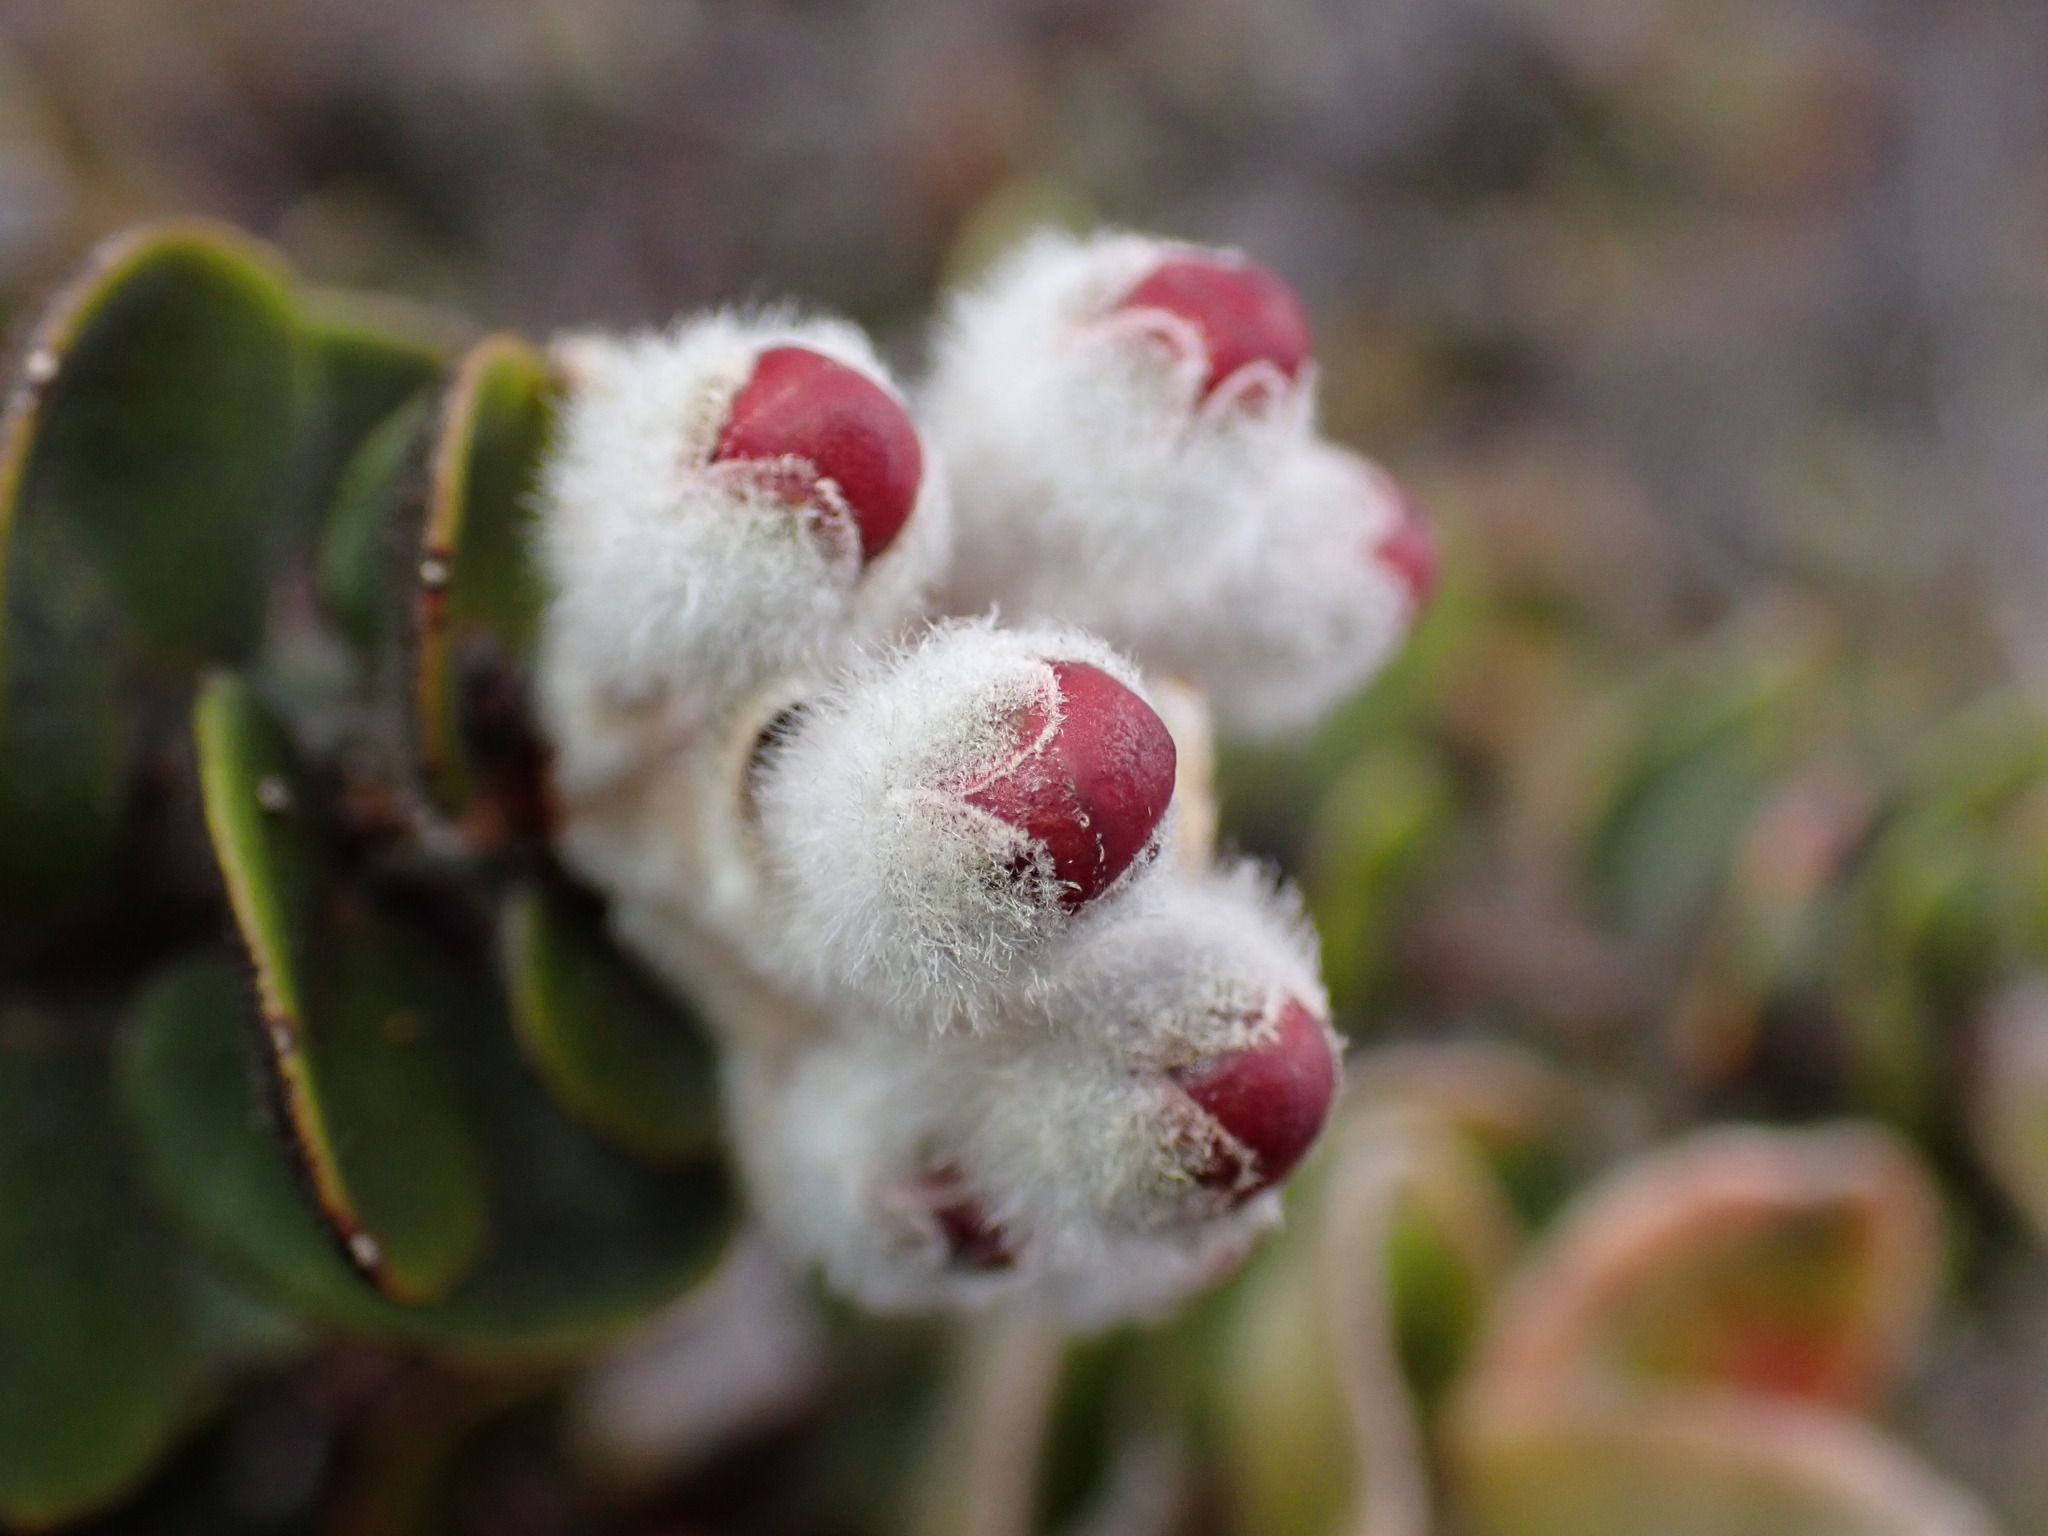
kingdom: Plantae
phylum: Tracheophyta
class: Magnoliopsida
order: Myrtales
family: Myrtaceae
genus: Metrosideros
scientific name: Metrosideros polymorpha
